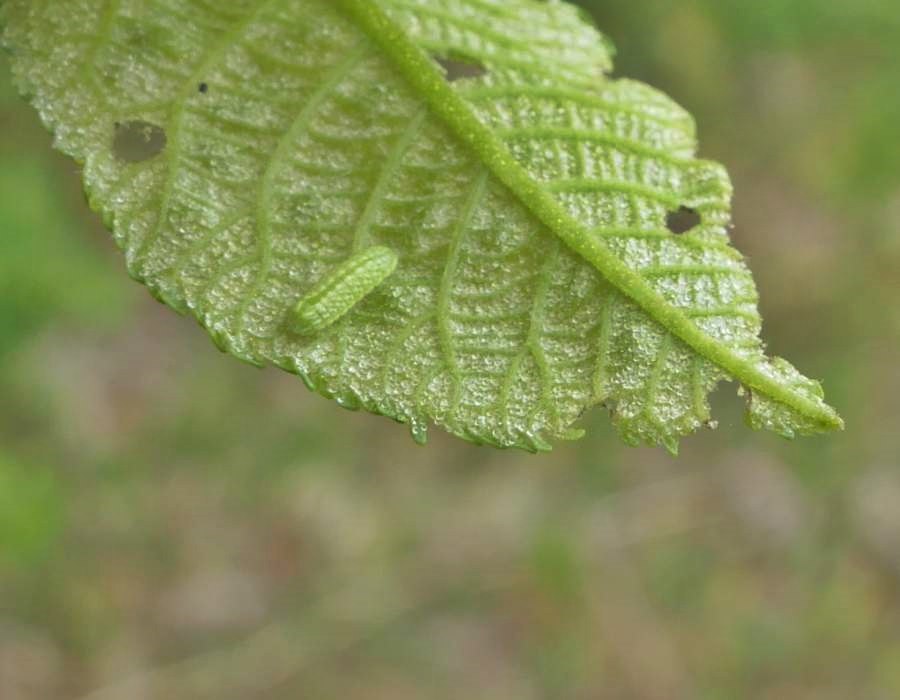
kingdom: Animalia
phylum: Arthropoda
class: Insecta
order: Lepidoptera
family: Lycaenidae
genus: Strymon
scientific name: Strymon caryaevorus
